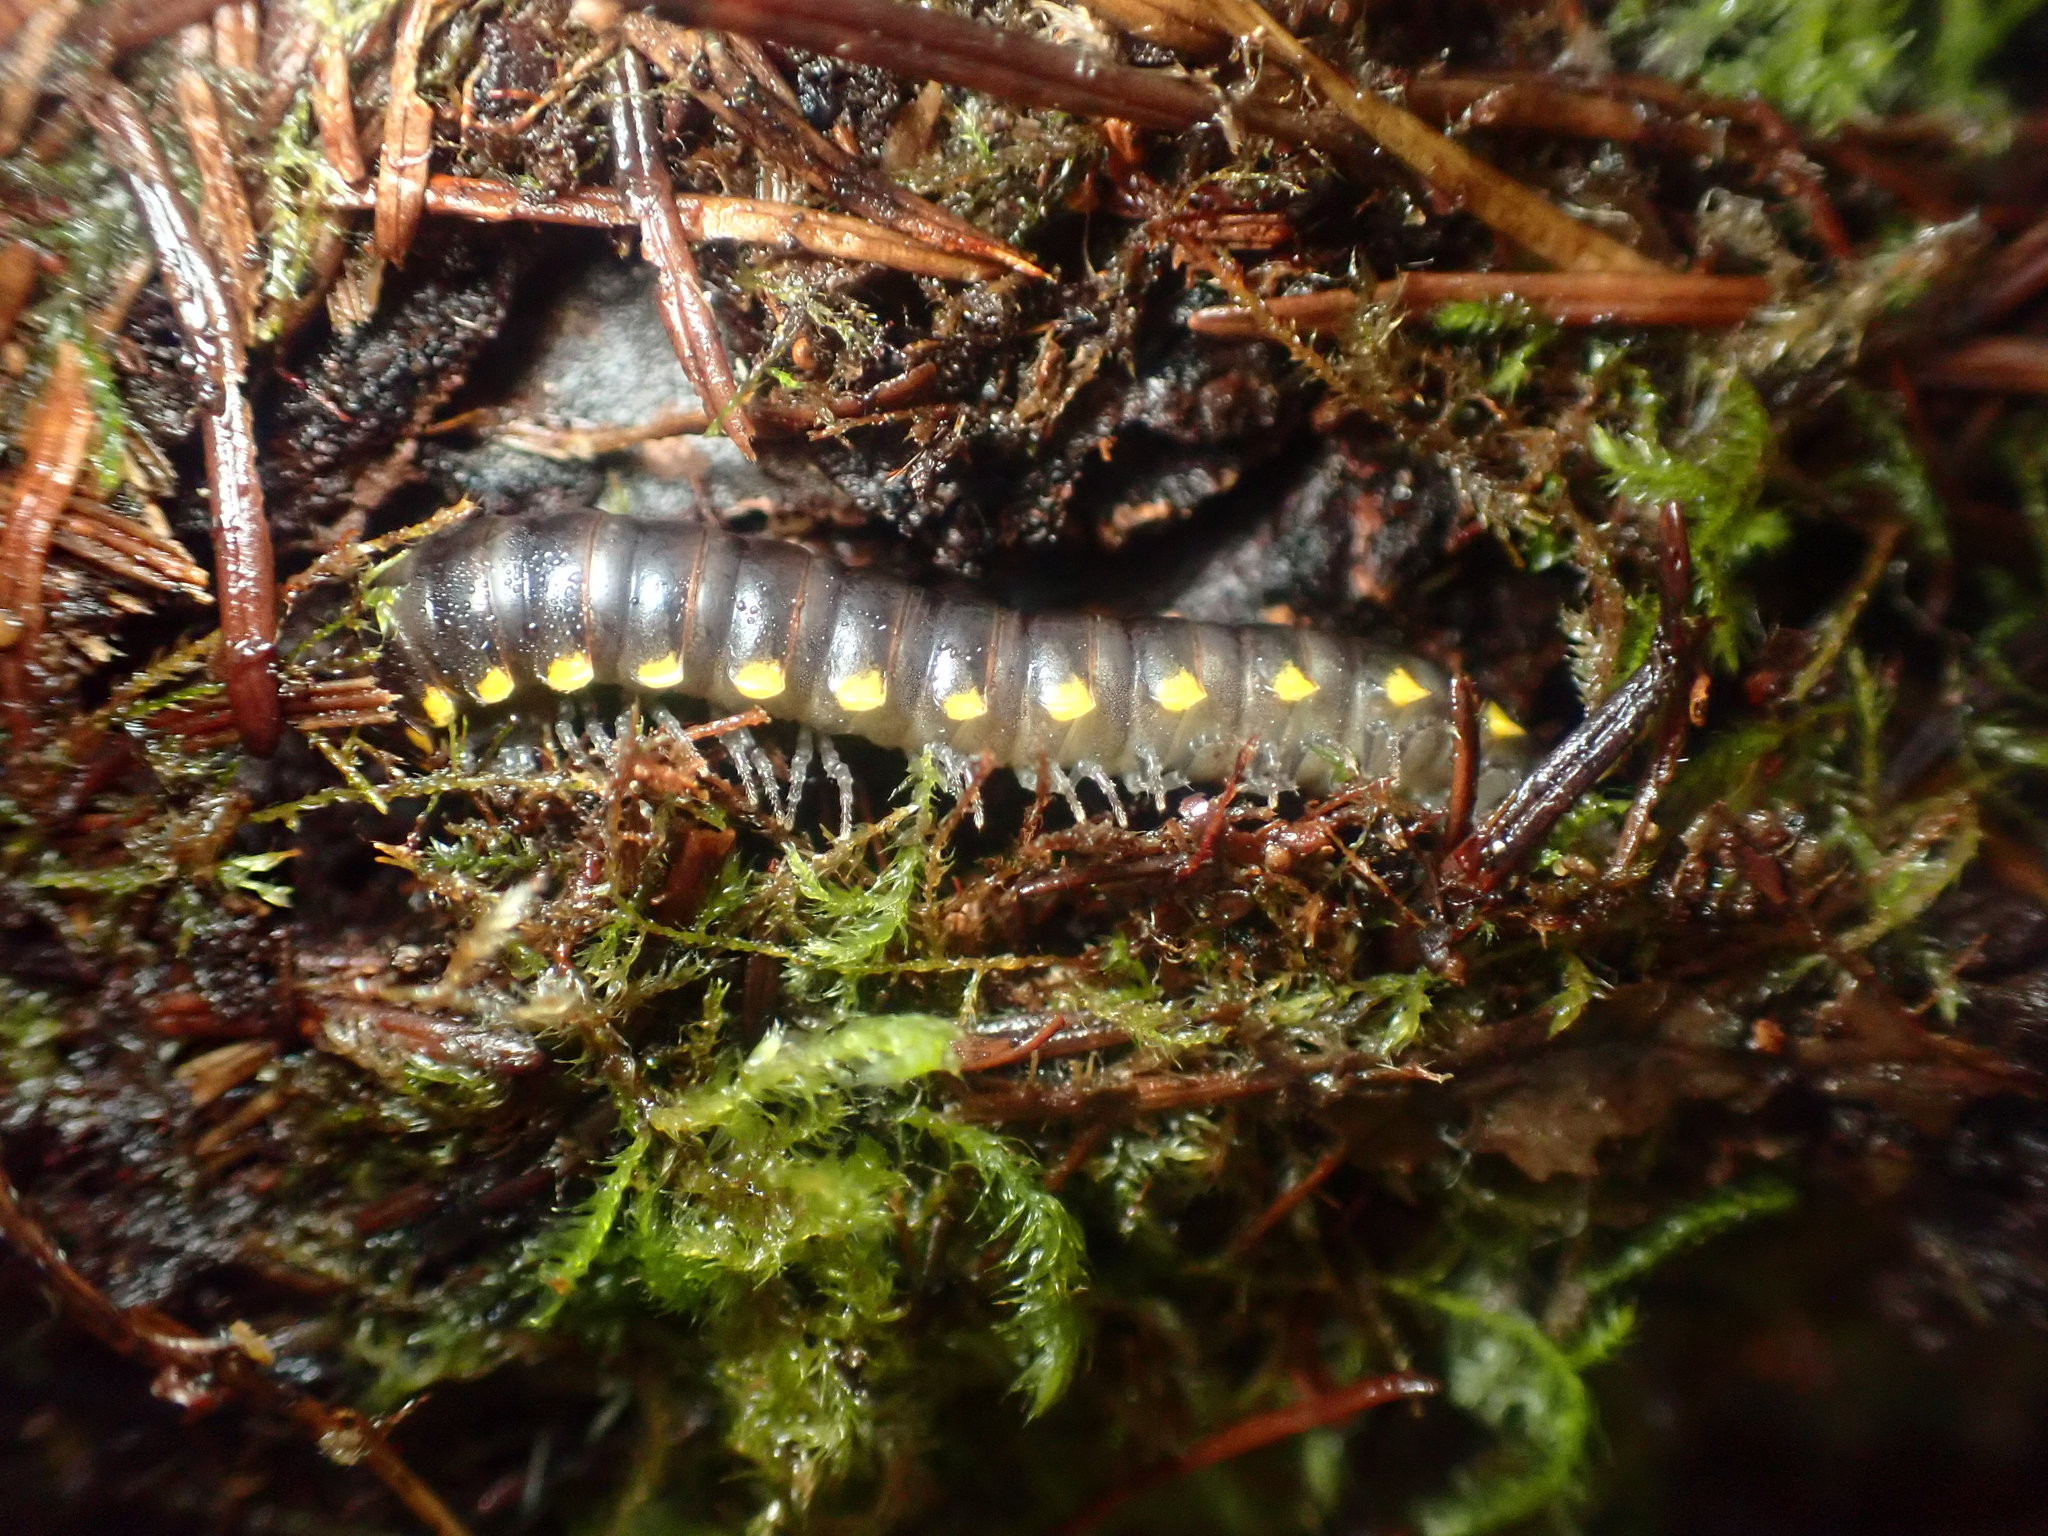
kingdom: Animalia
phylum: Arthropoda
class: Diplopoda
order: Polydesmida
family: Xystodesmidae
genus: Harpaphe
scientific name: Harpaphe haydeniana
